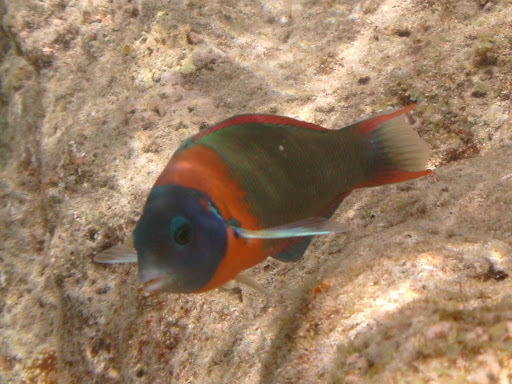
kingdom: Animalia
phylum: Chordata
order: Perciformes
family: Labridae
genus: Thalassoma
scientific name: Thalassoma duperrey
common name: Saddle wrasse
